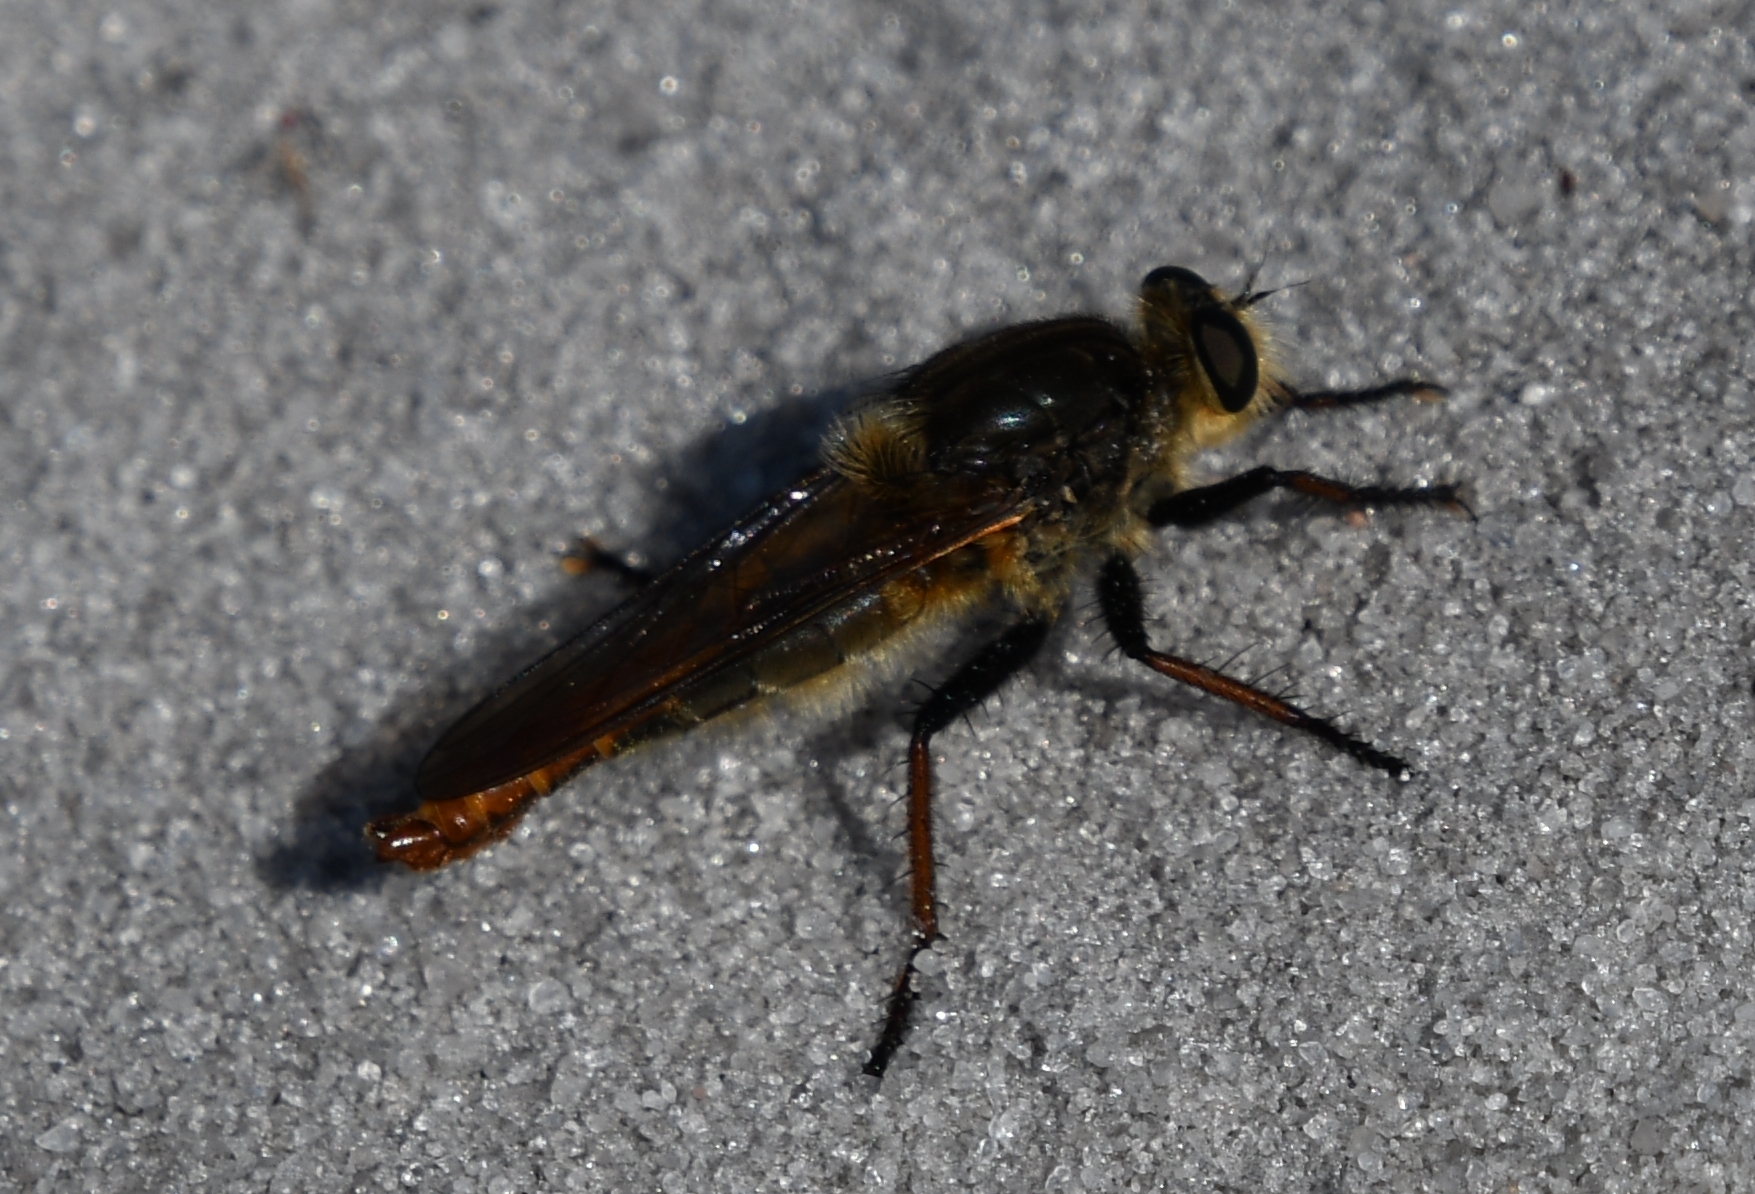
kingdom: Animalia
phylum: Arthropoda
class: Insecta
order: Diptera
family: Asilidae
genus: Proctacanthus
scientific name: Proctacanthus fulviventris
